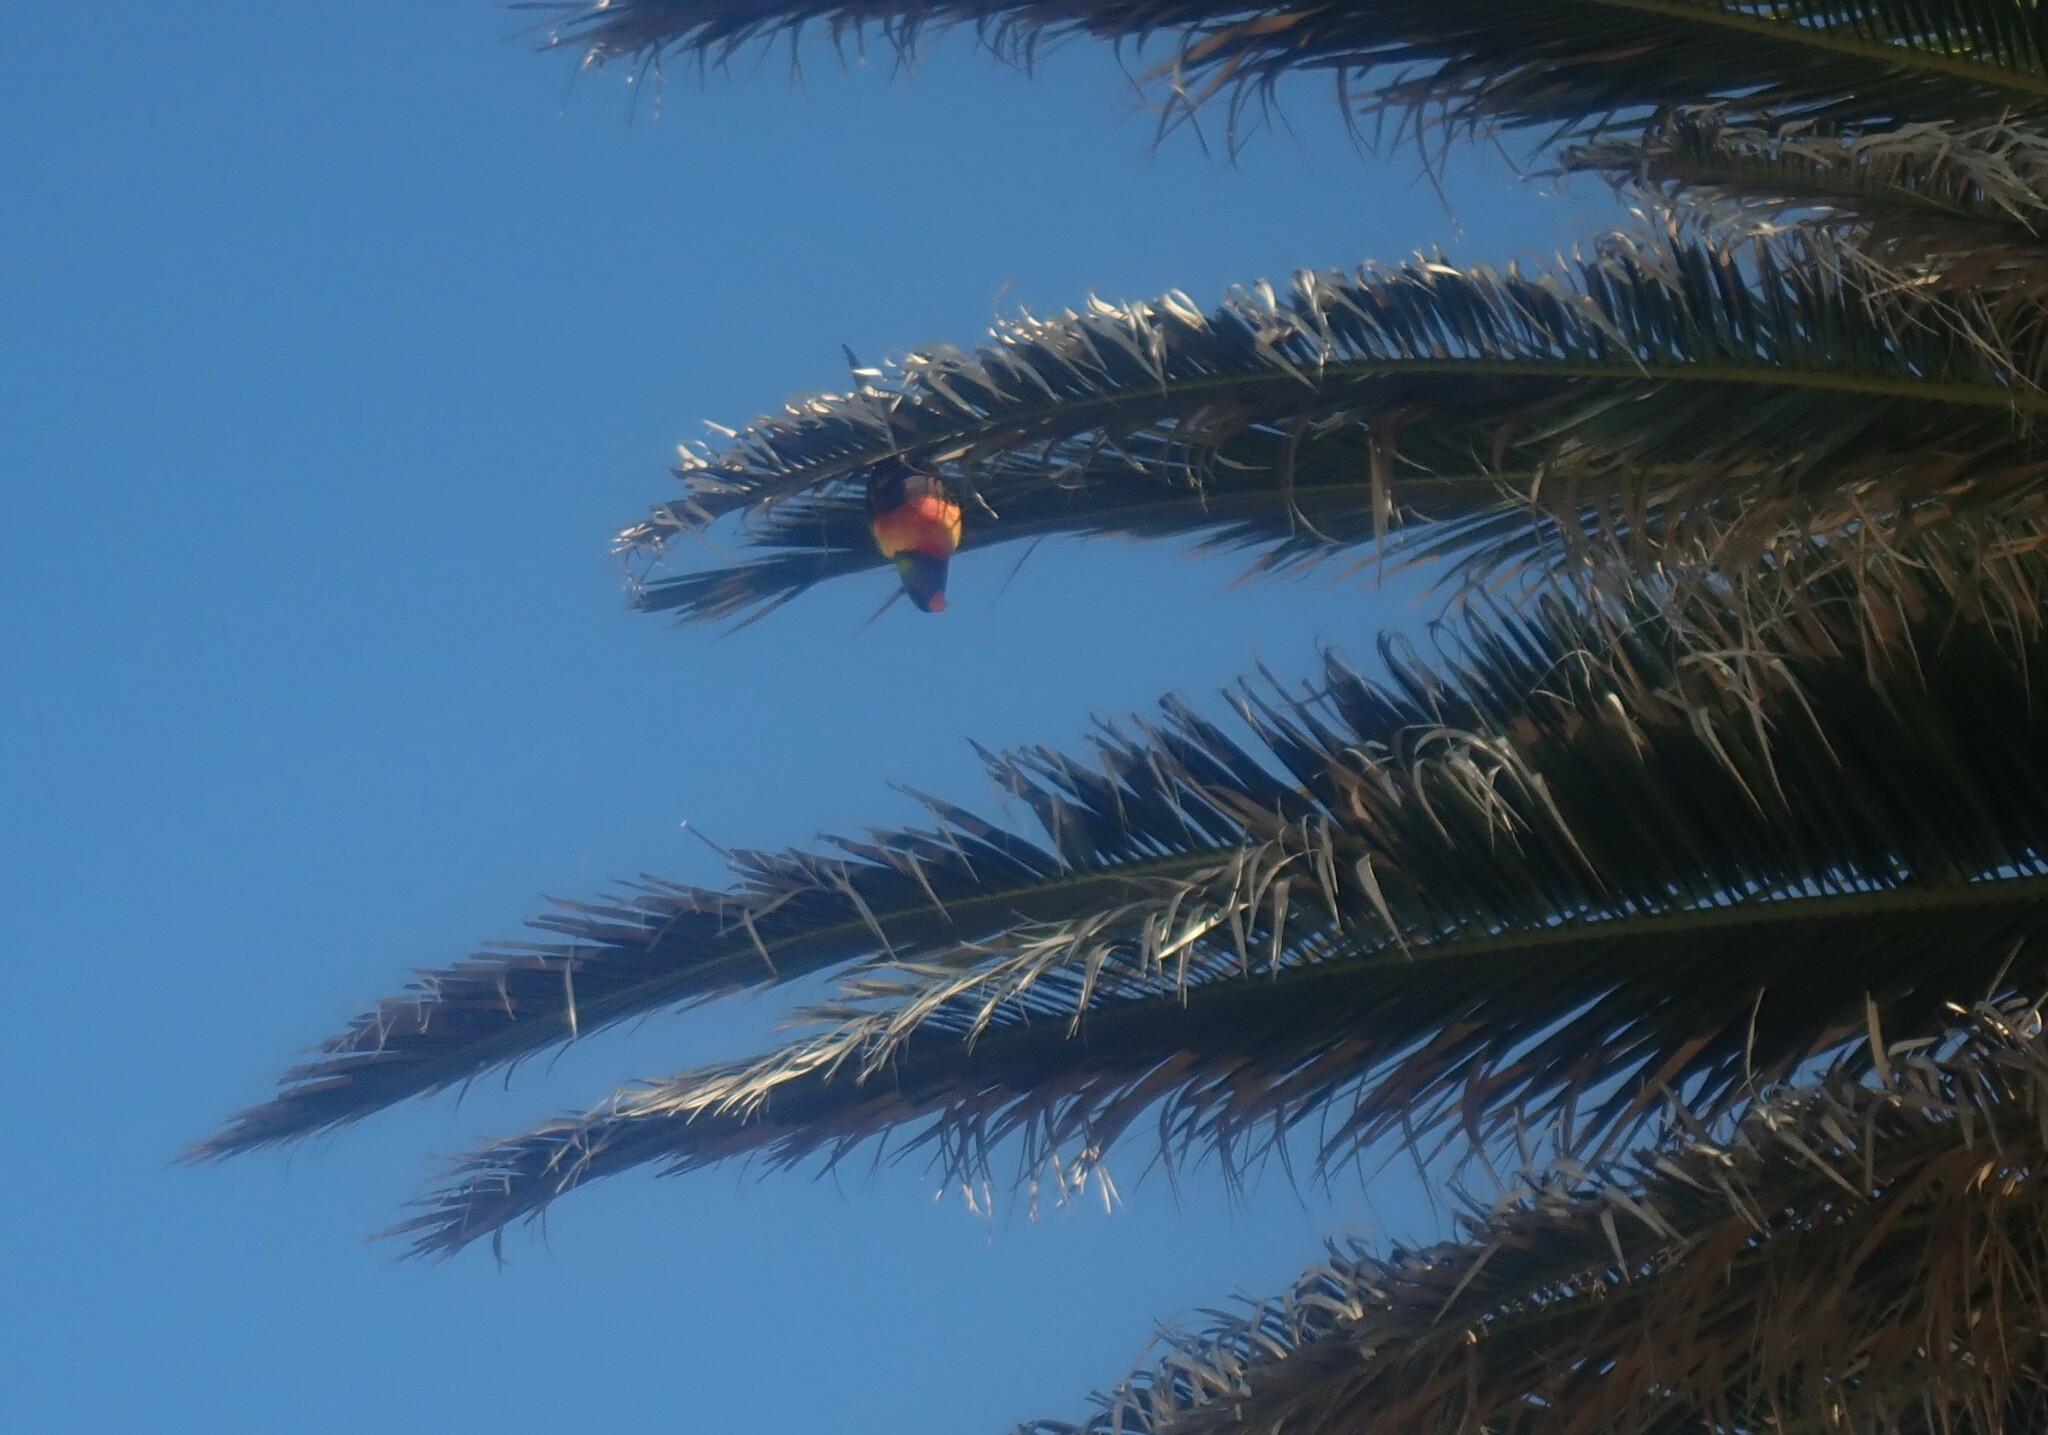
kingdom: Animalia
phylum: Chordata
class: Aves
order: Psittaciformes
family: Psittacidae
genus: Trichoglossus
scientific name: Trichoglossus haematodus
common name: Coconut lorikeet
